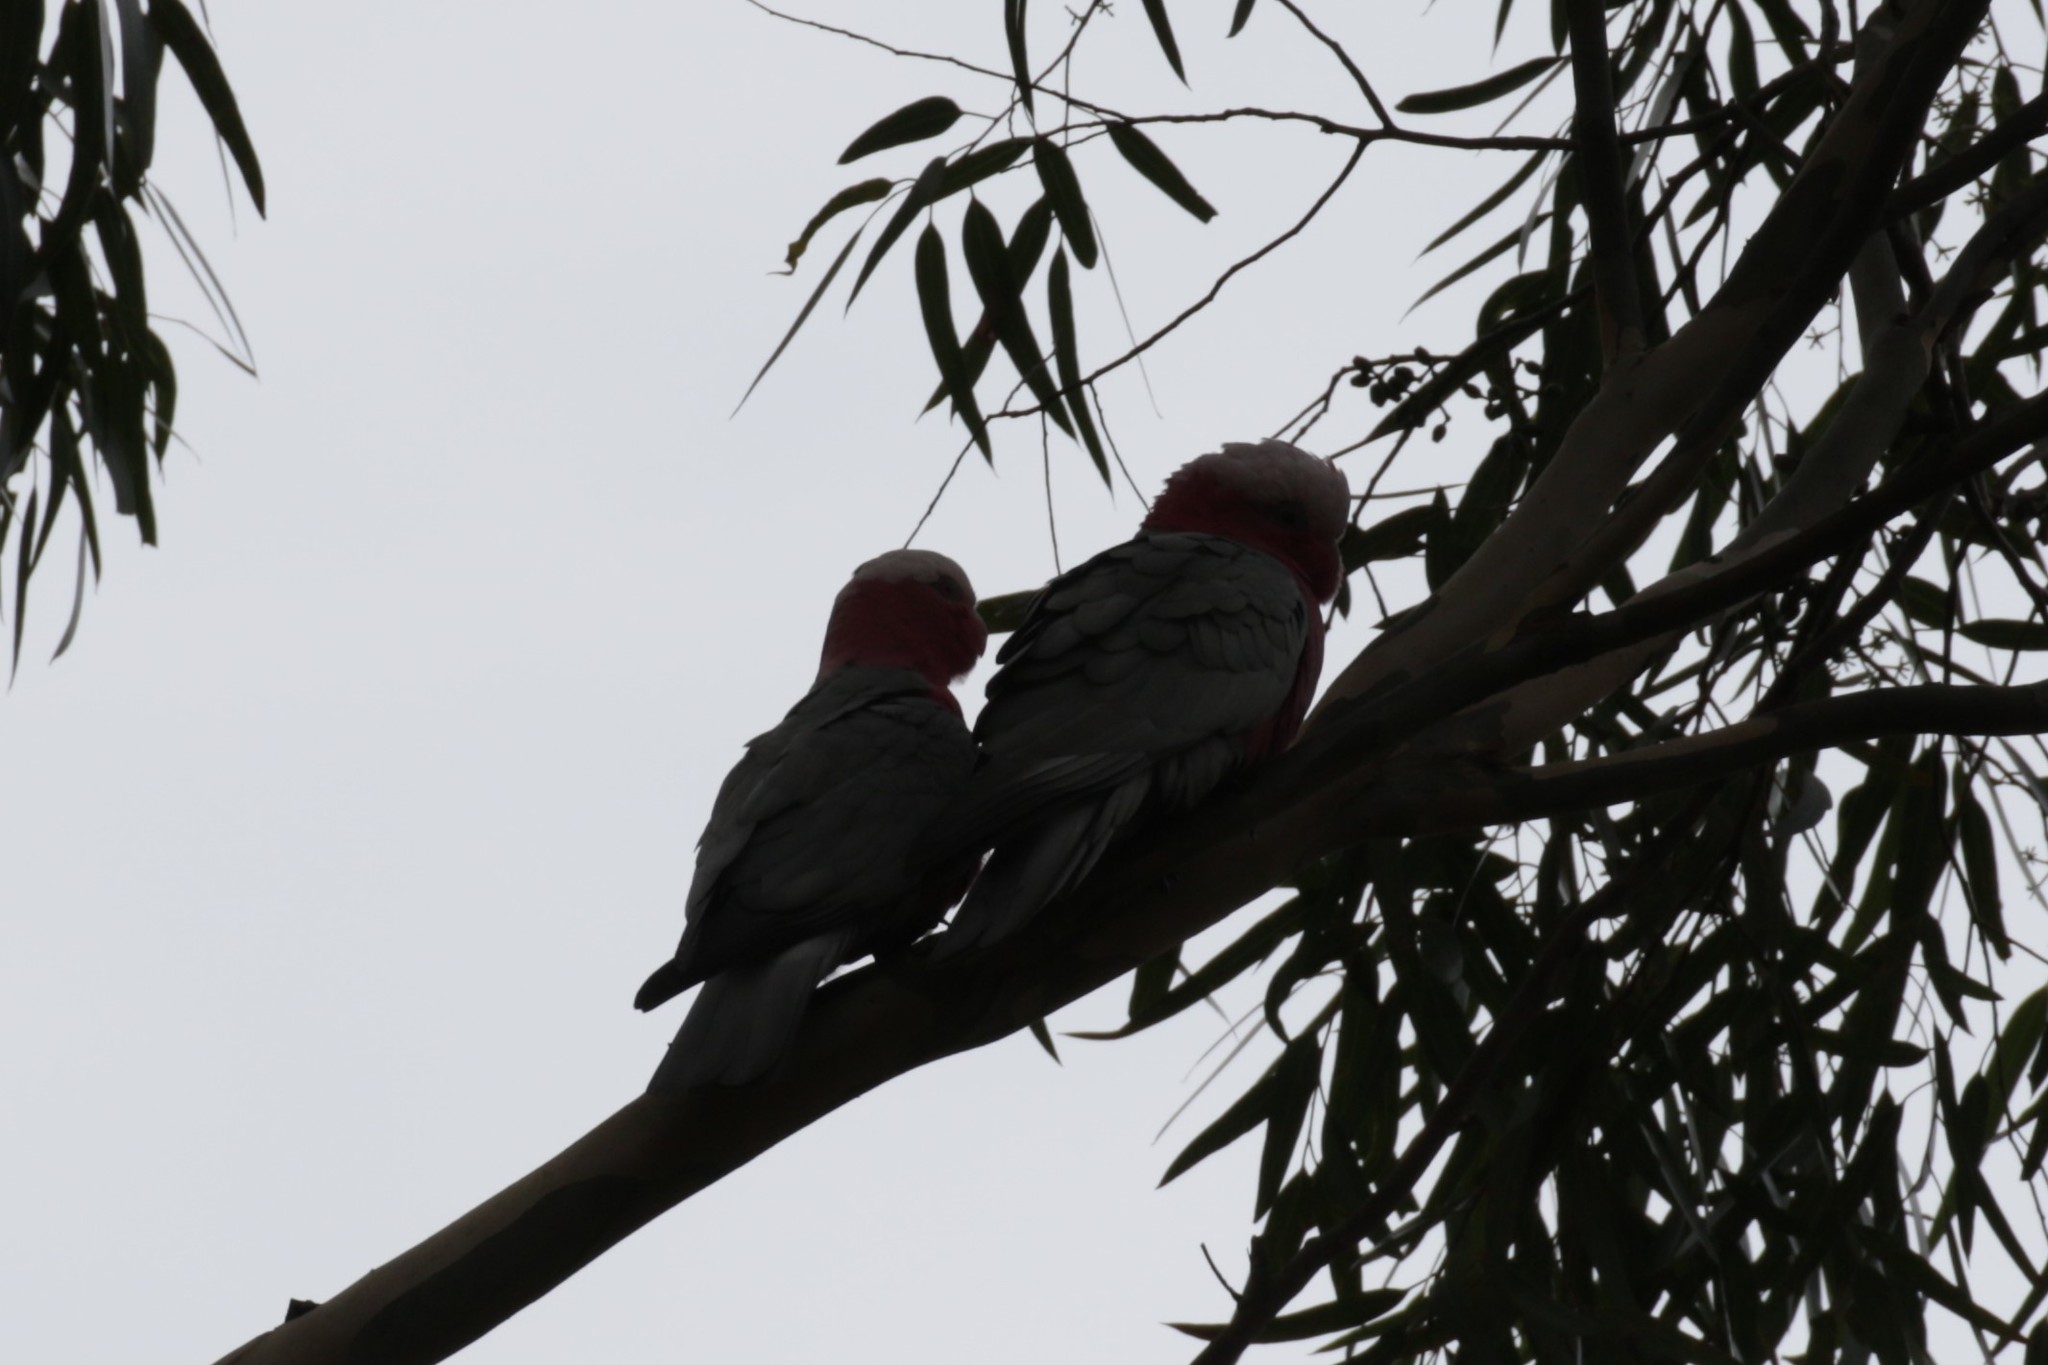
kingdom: Animalia
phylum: Chordata
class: Aves
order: Psittaciformes
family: Psittacidae
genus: Eolophus
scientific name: Eolophus roseicapilla
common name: Galah
